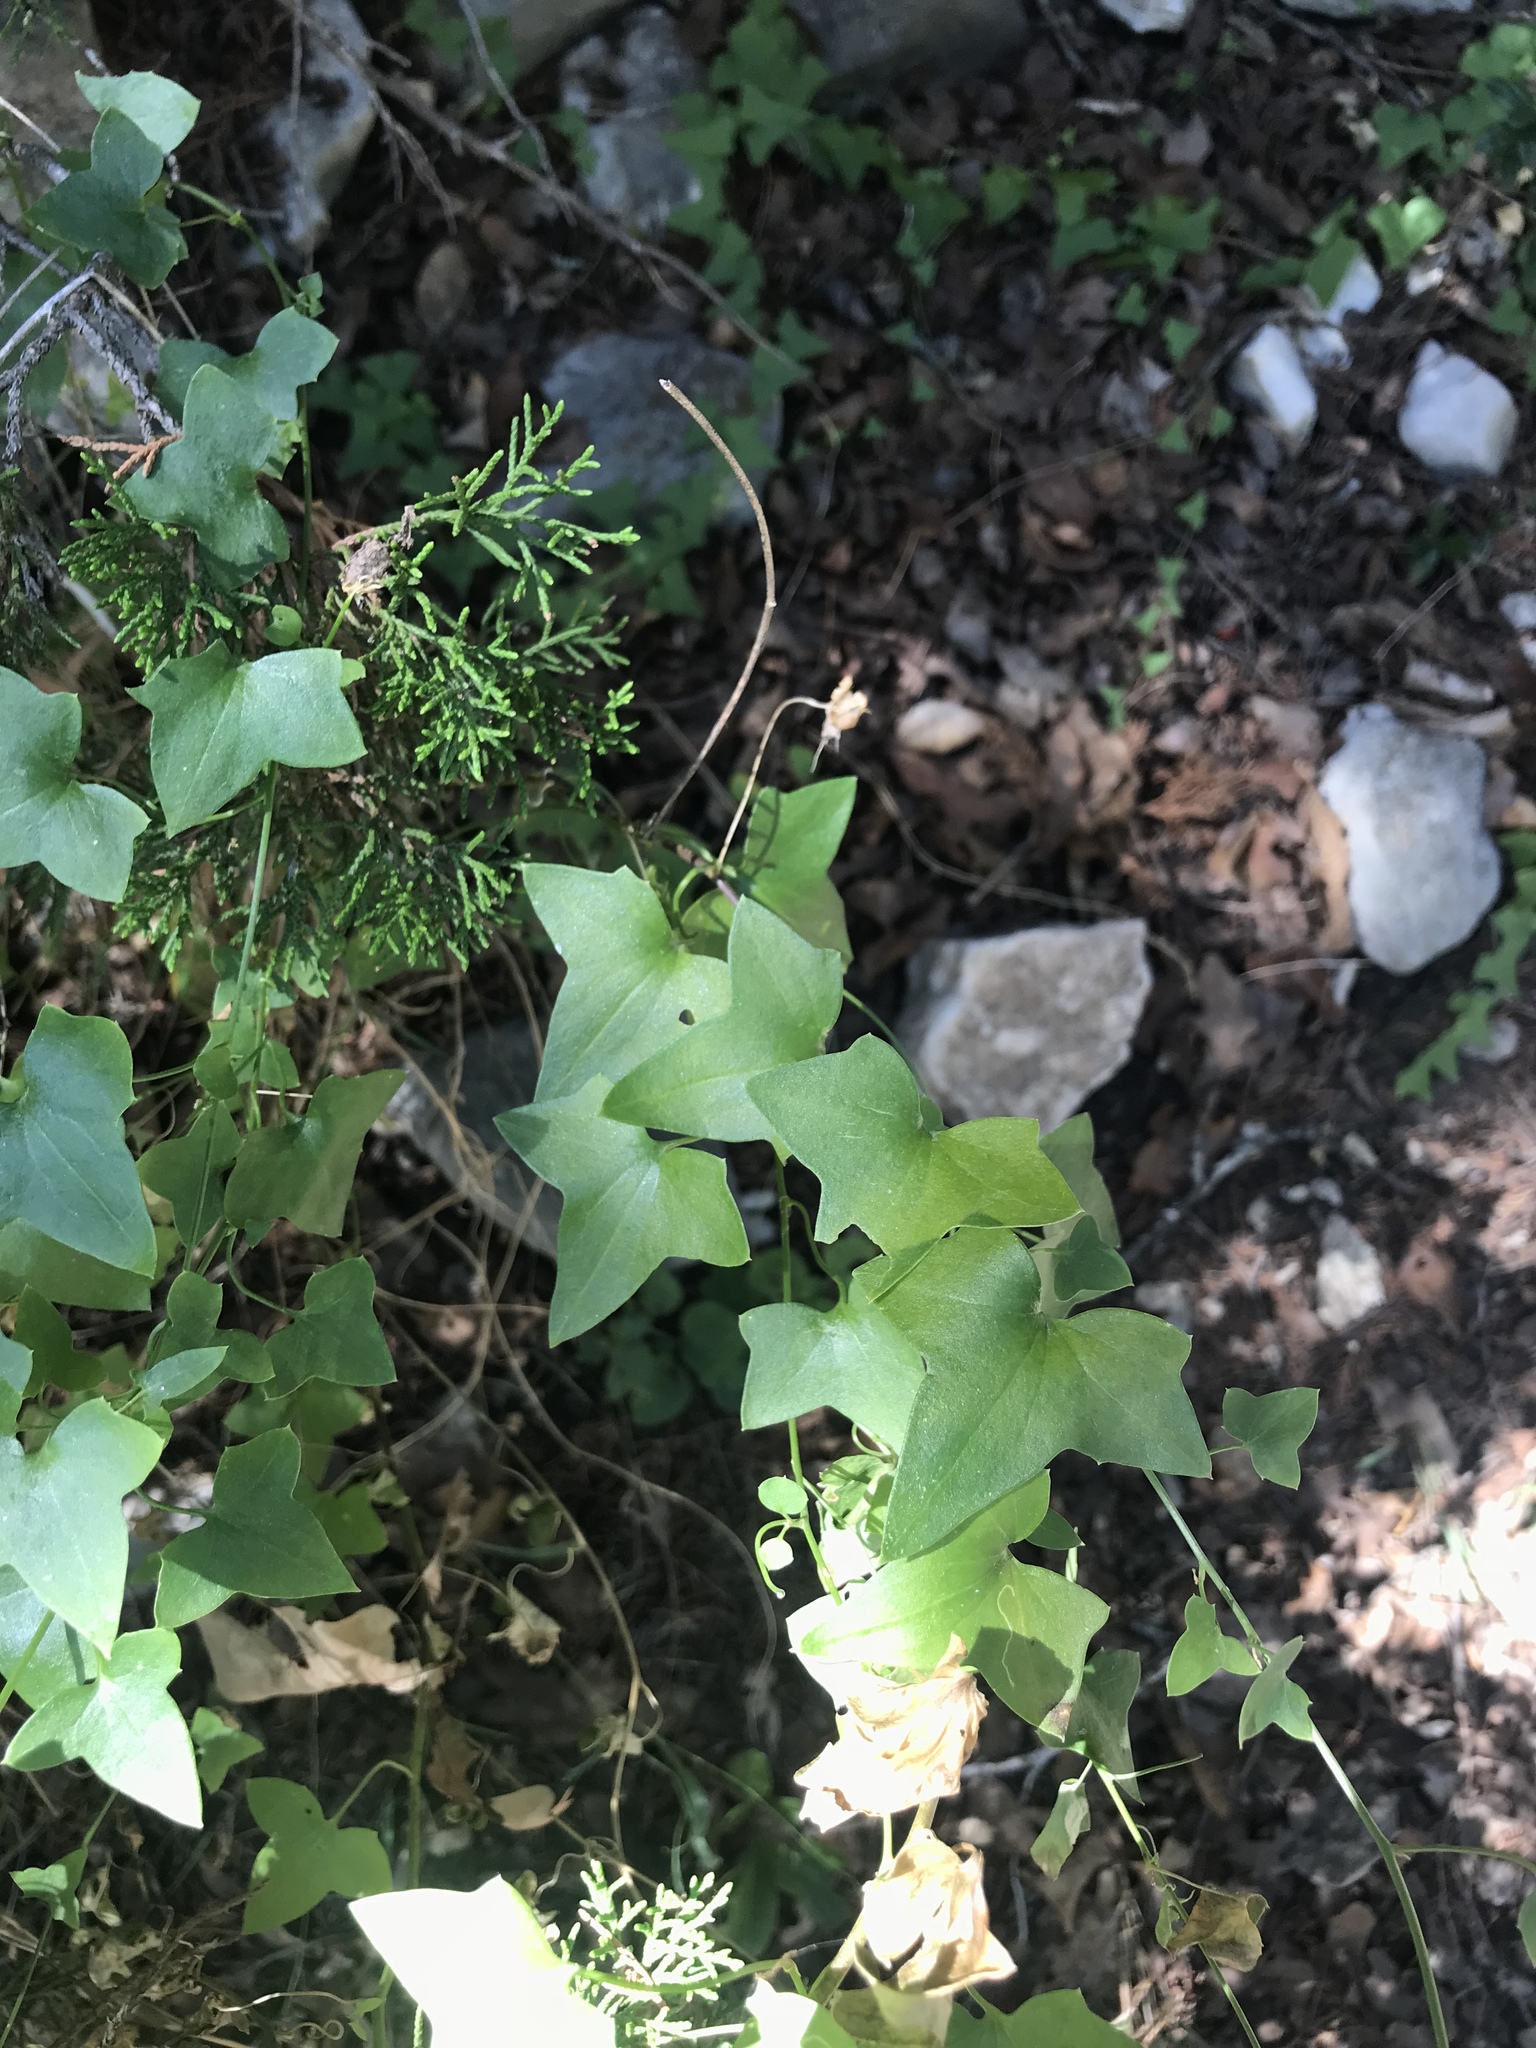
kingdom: Plantae
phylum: Tracheophyta
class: Magnoliopsida
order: Lamiales
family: Plantaginaceae
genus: Maurandella
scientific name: Maurandella antirrhiniflora
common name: Violet twining-snapdragon
